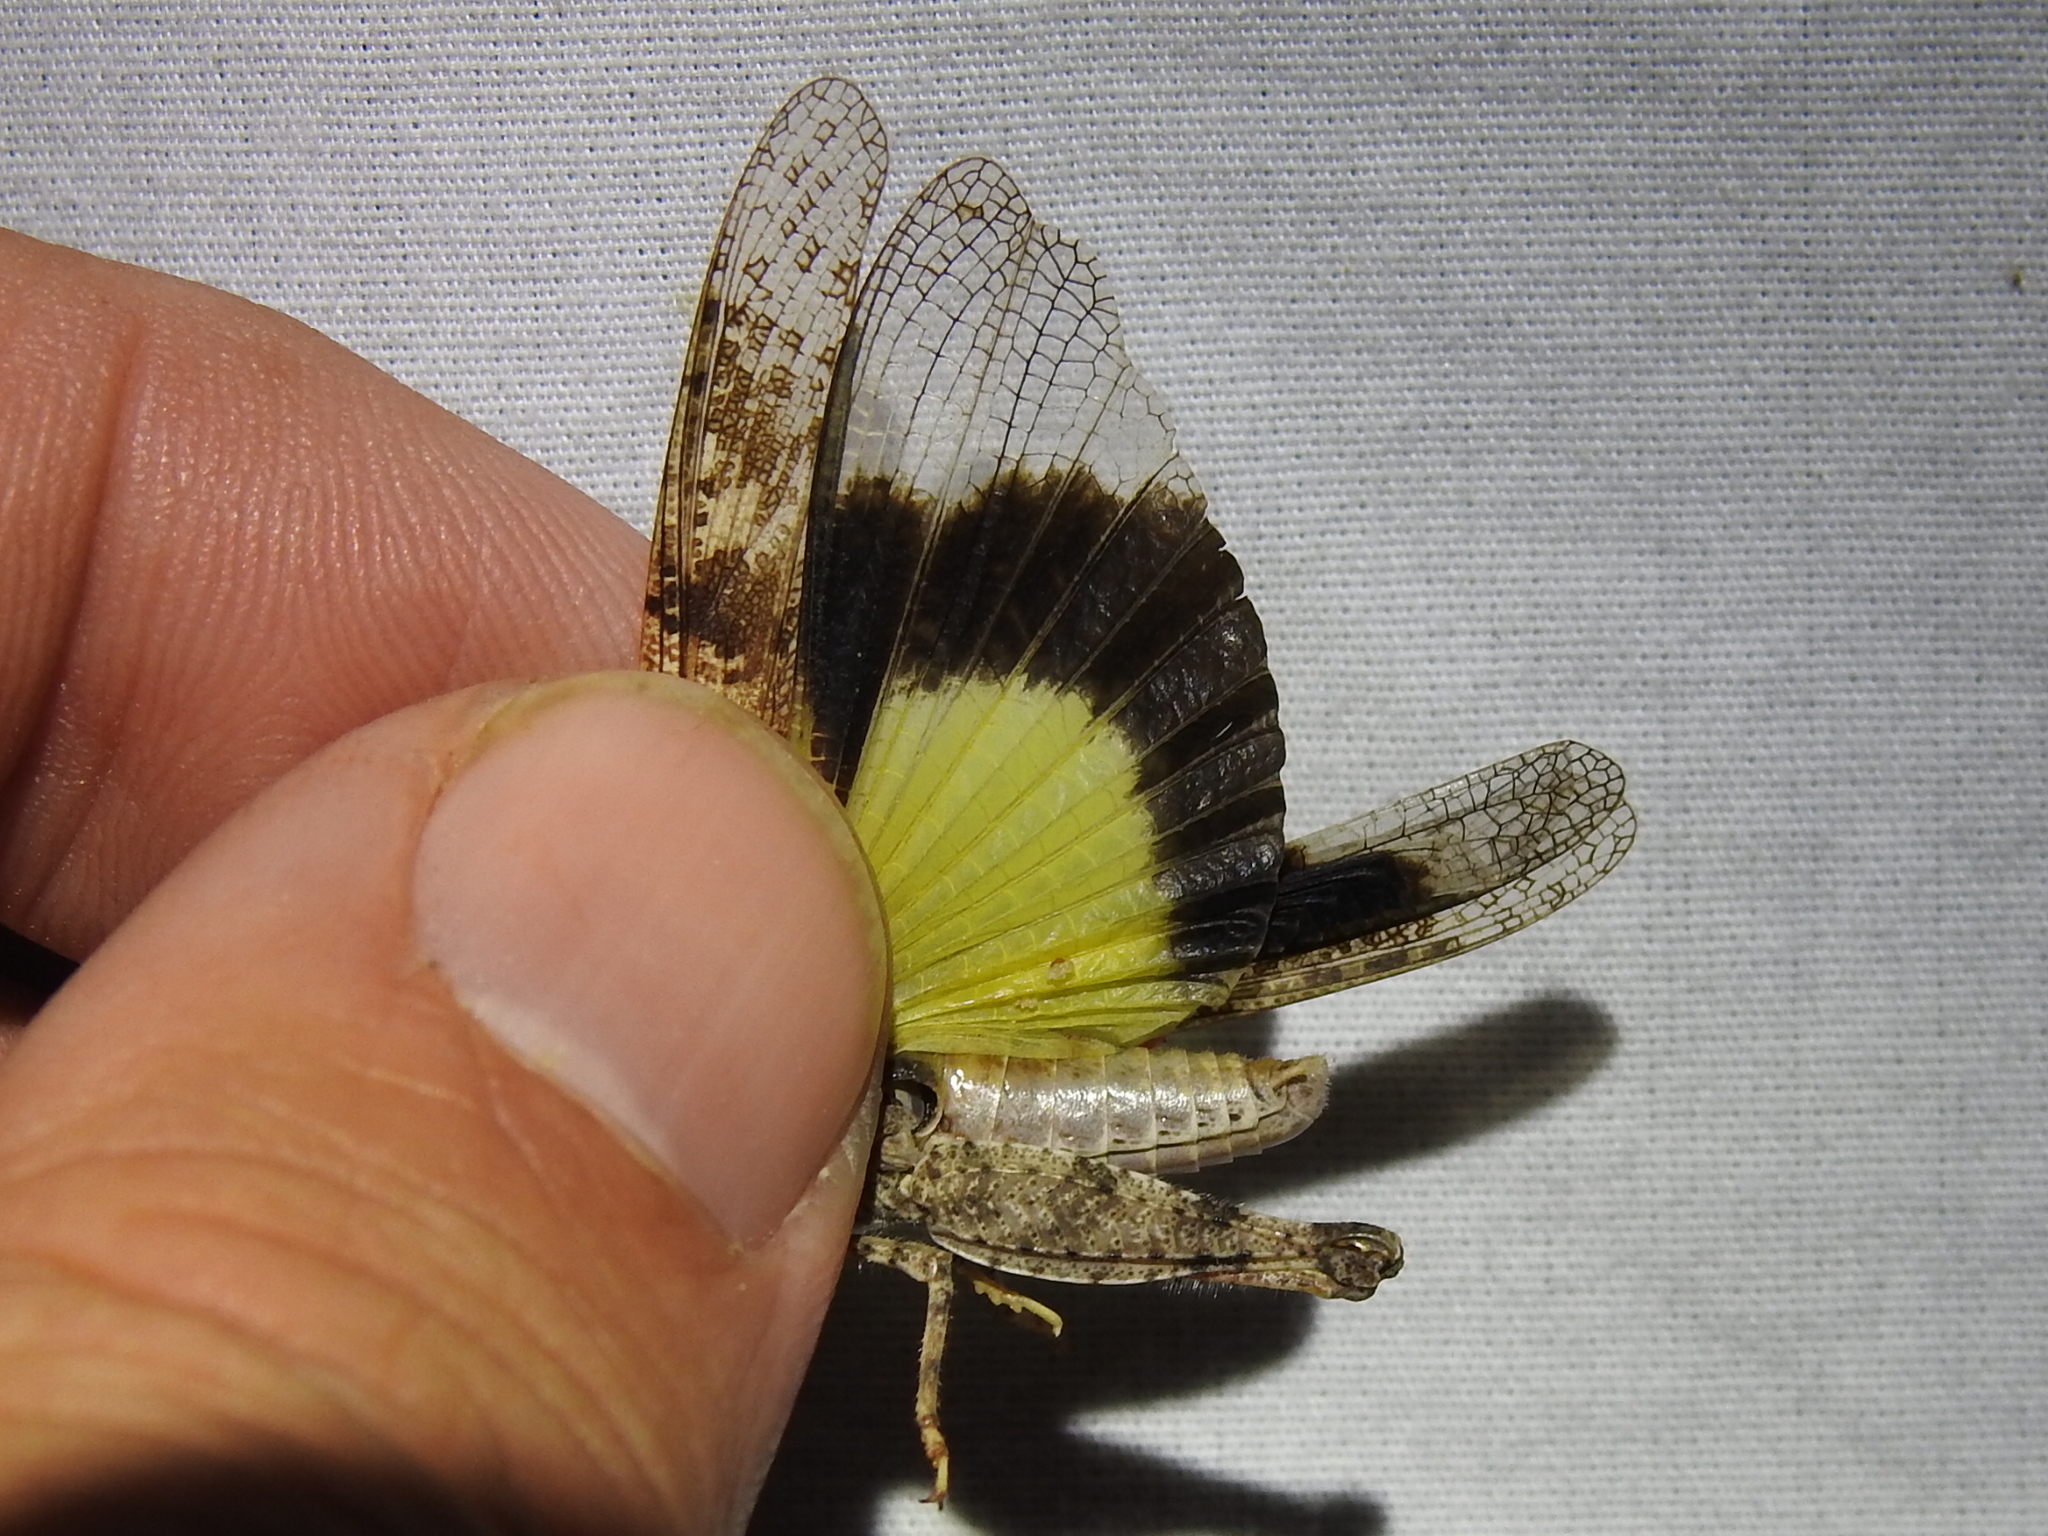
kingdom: Animalia
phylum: Arthropoda
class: Insecta
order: Orthoptera
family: Acrididae
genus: Trimerotropis
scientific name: Trimerotropis maritima
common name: Seaside locust
